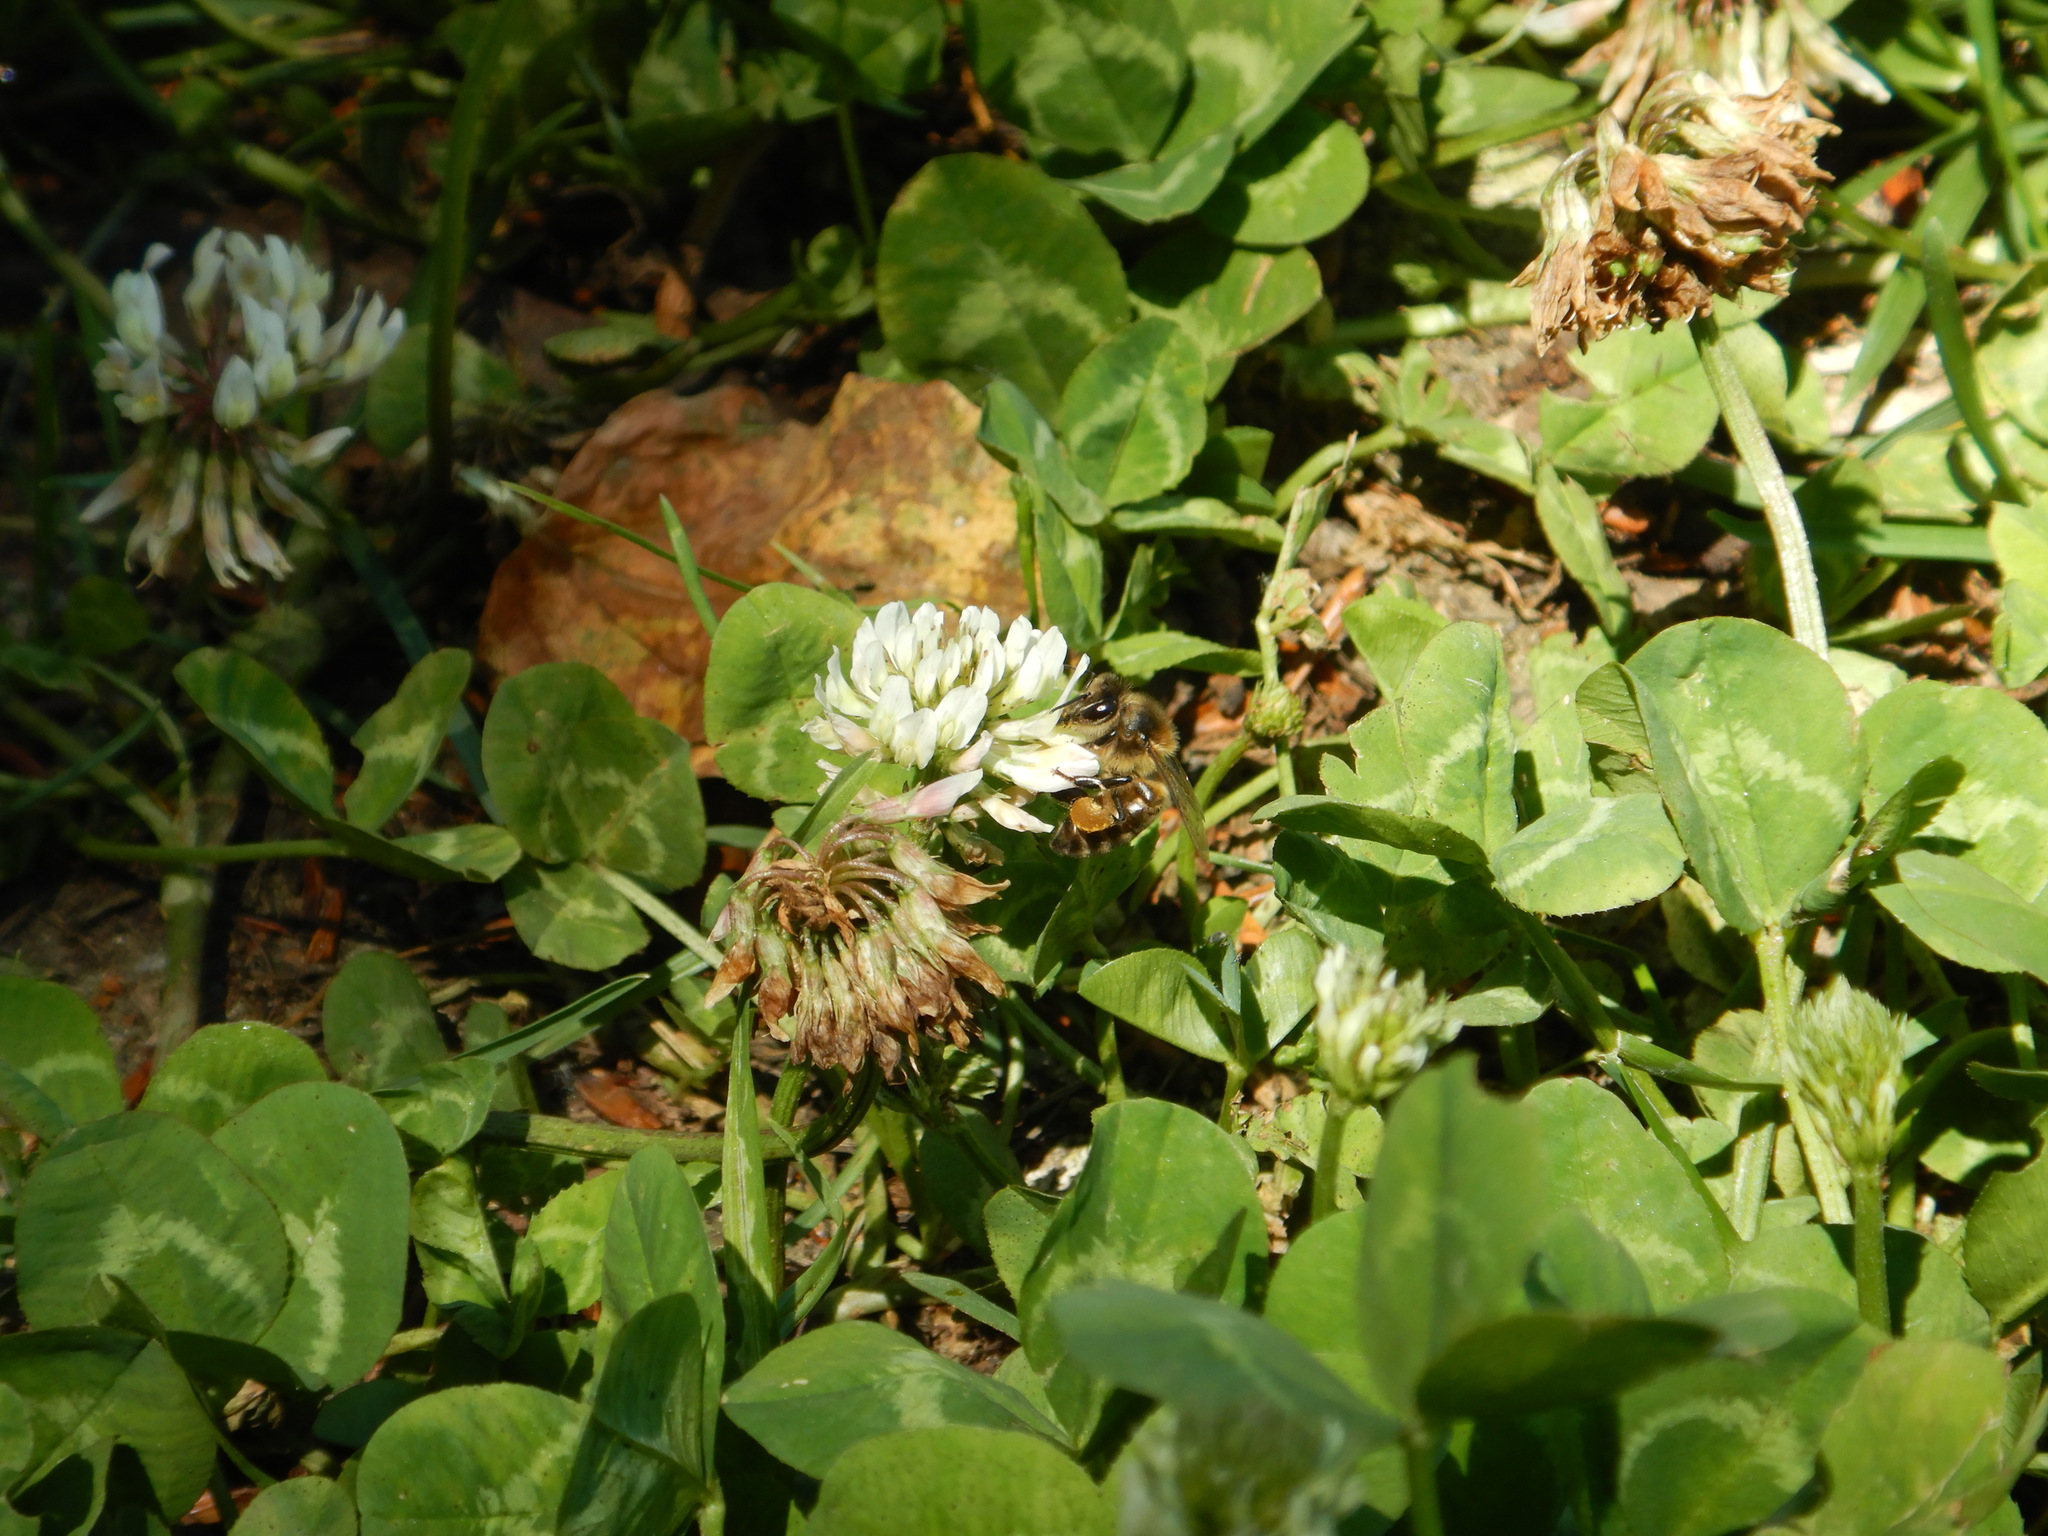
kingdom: Animalia
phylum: Arthropoda
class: Insecta
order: Hymenoptera
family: Apidae
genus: Apis
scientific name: Apis mellifera
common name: Honey bee
